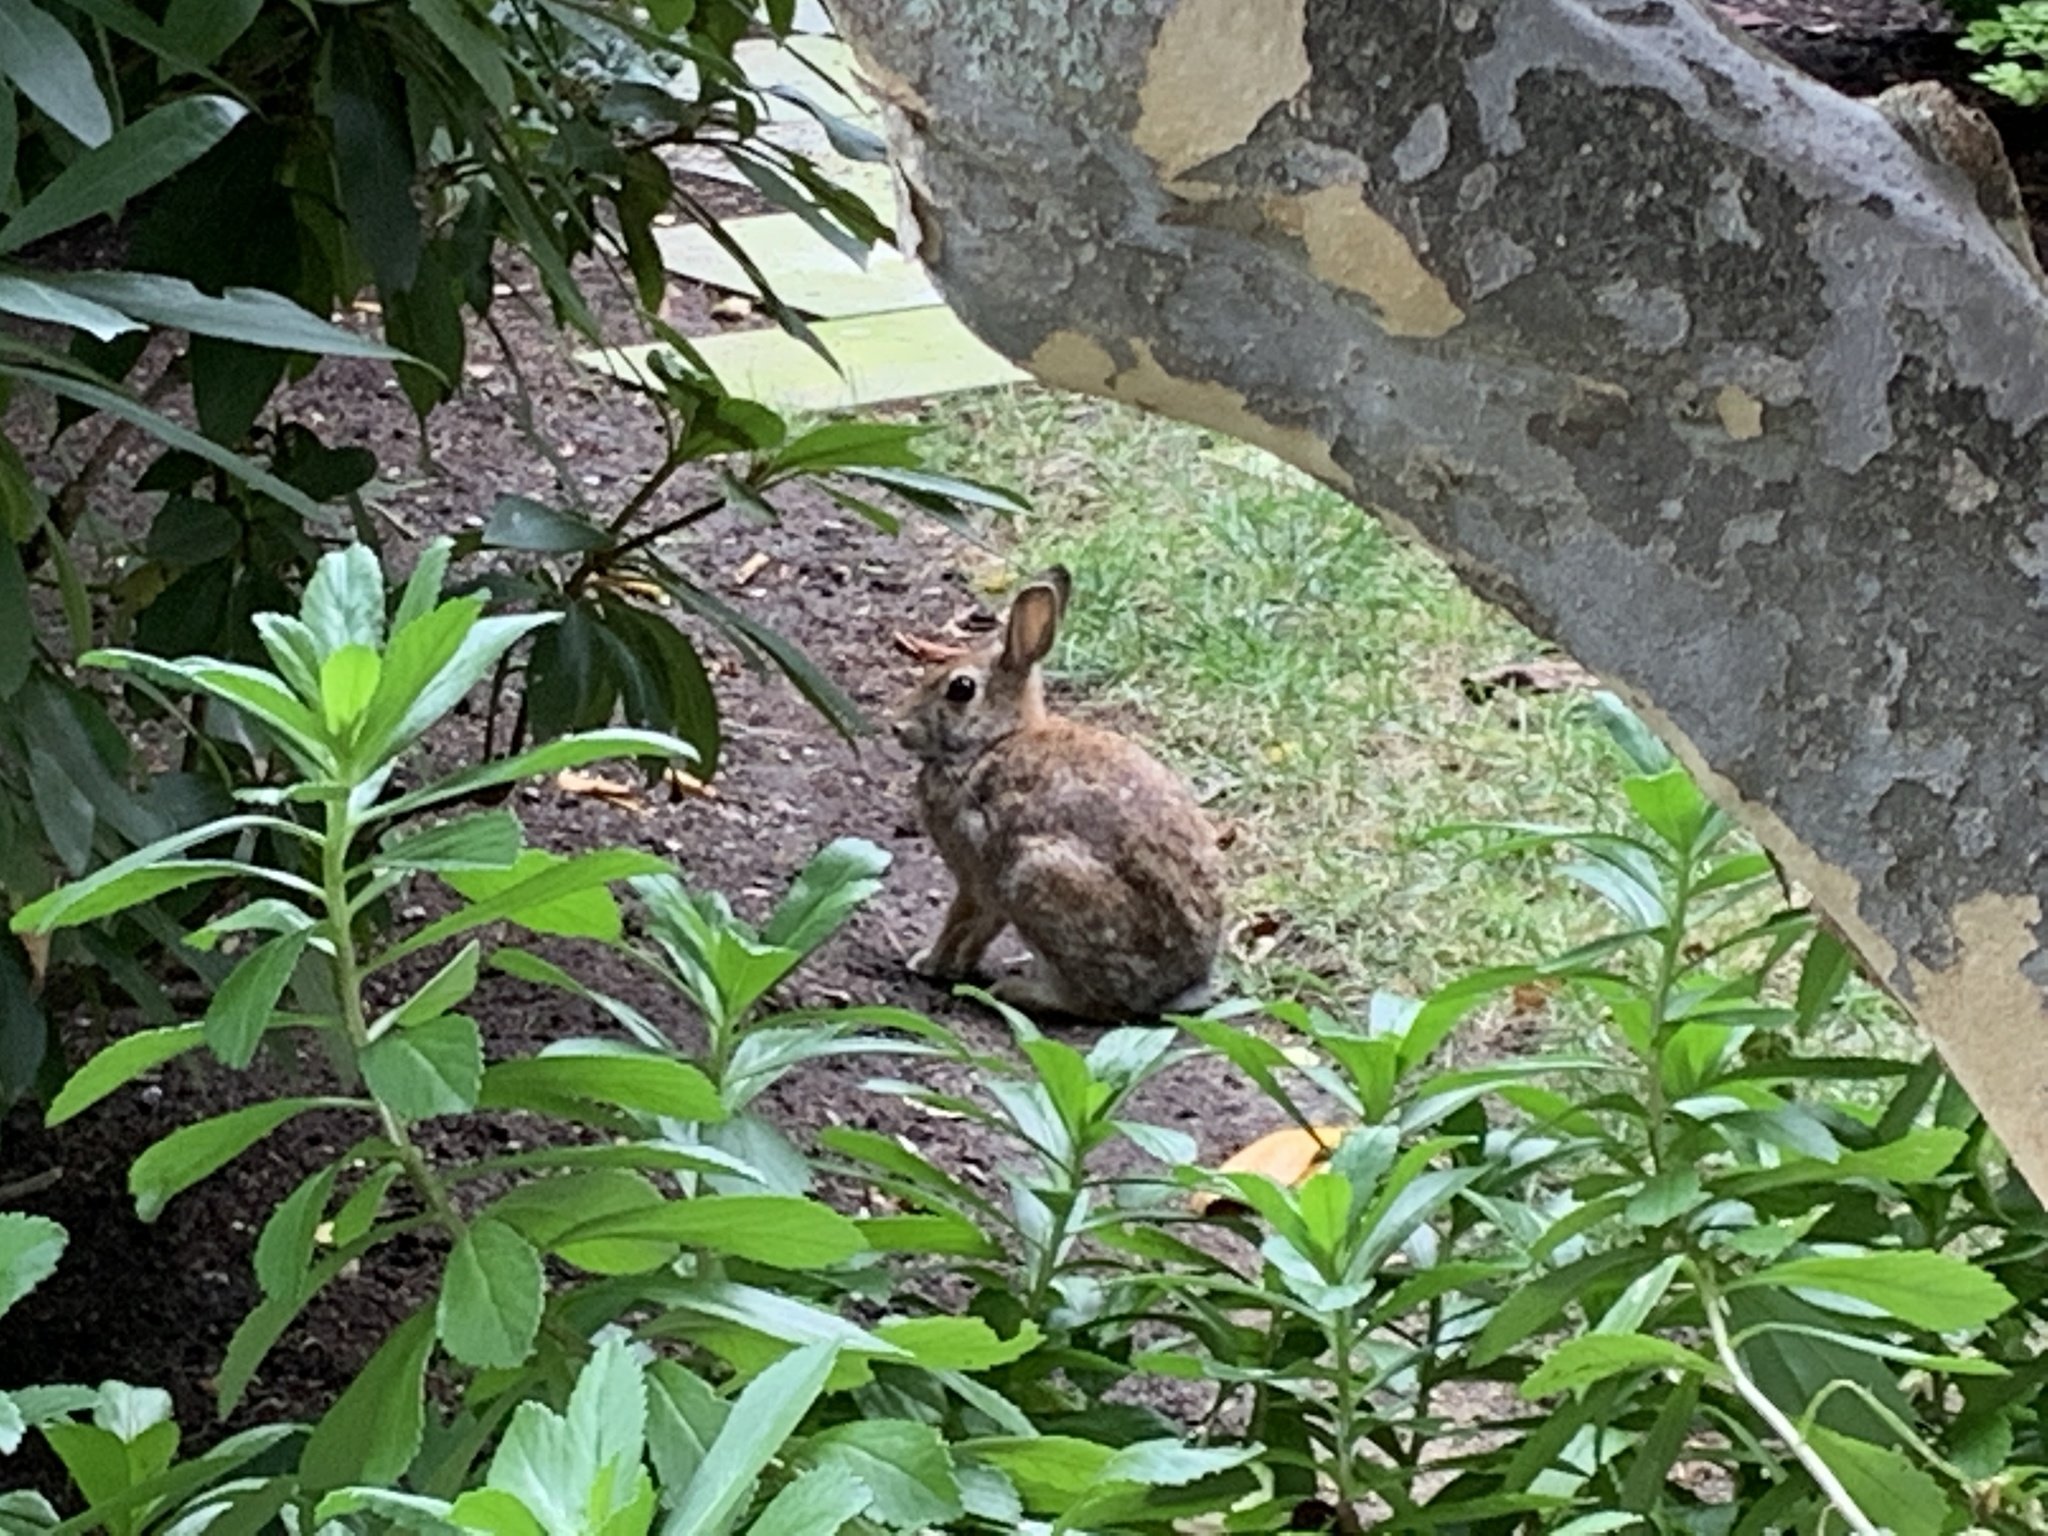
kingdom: Animalia
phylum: Chordata
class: Mammalia
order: Lagomorpha
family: Leporidae
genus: Sylvilagus
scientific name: Sylvilagus floridanus
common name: Eastern cottontail
